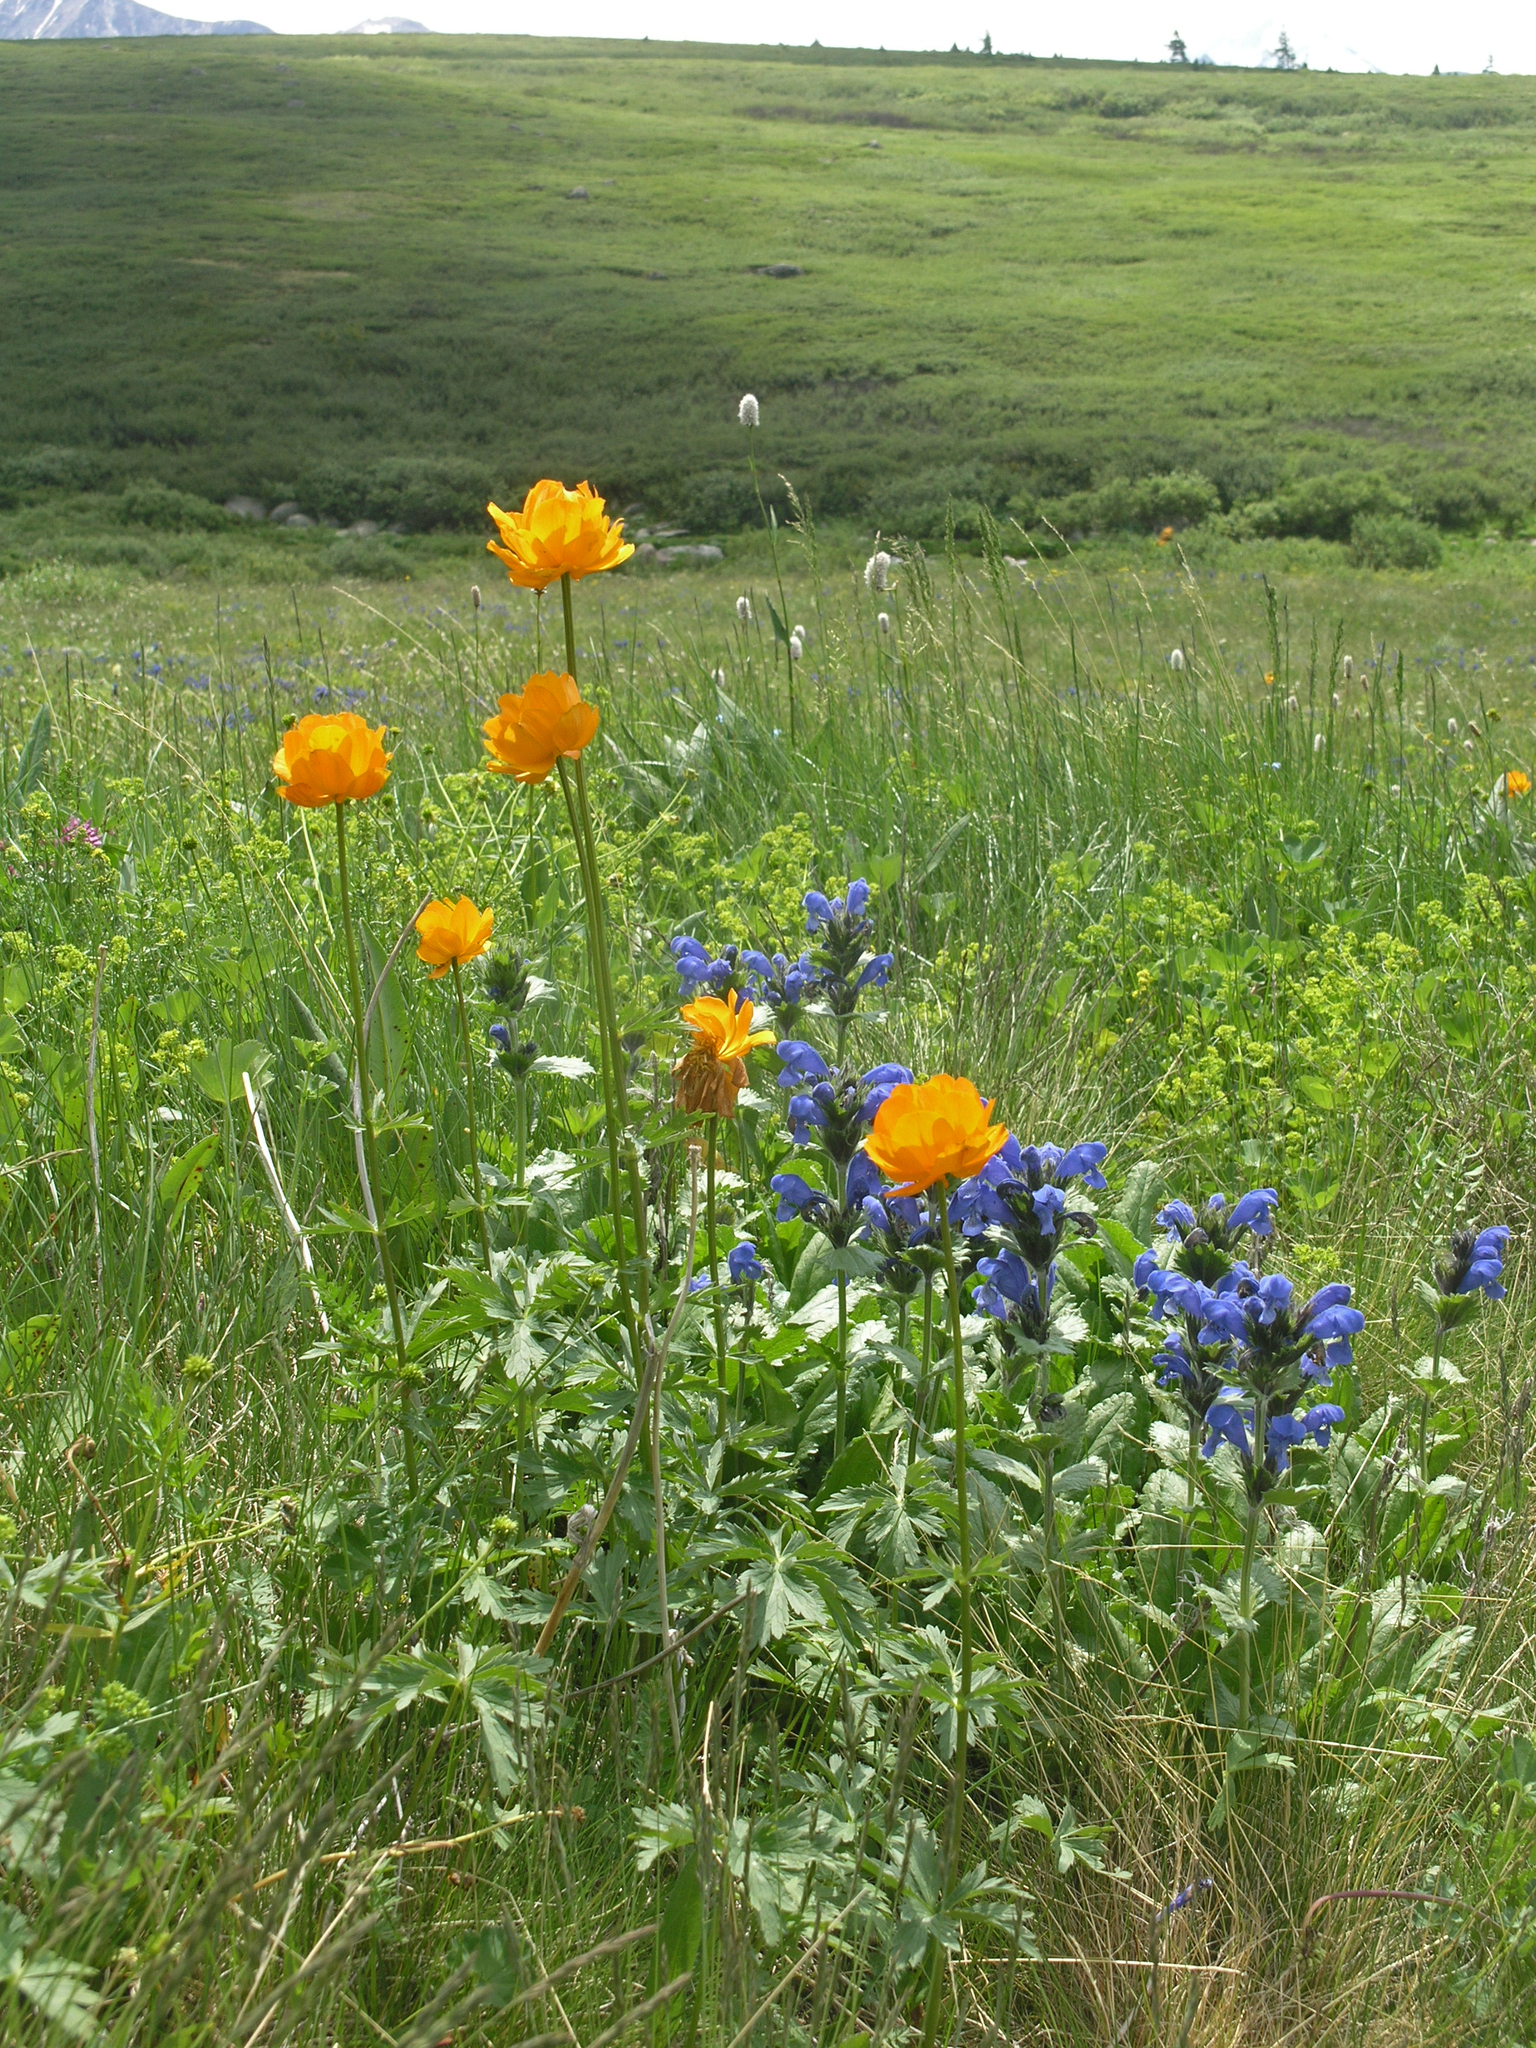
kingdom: Plantae
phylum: Tracheophyta
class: Magnoliopsida
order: Lamiales
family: Lamiaceae
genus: Dracocephalum
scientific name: Dracocephalum grandiflorum
